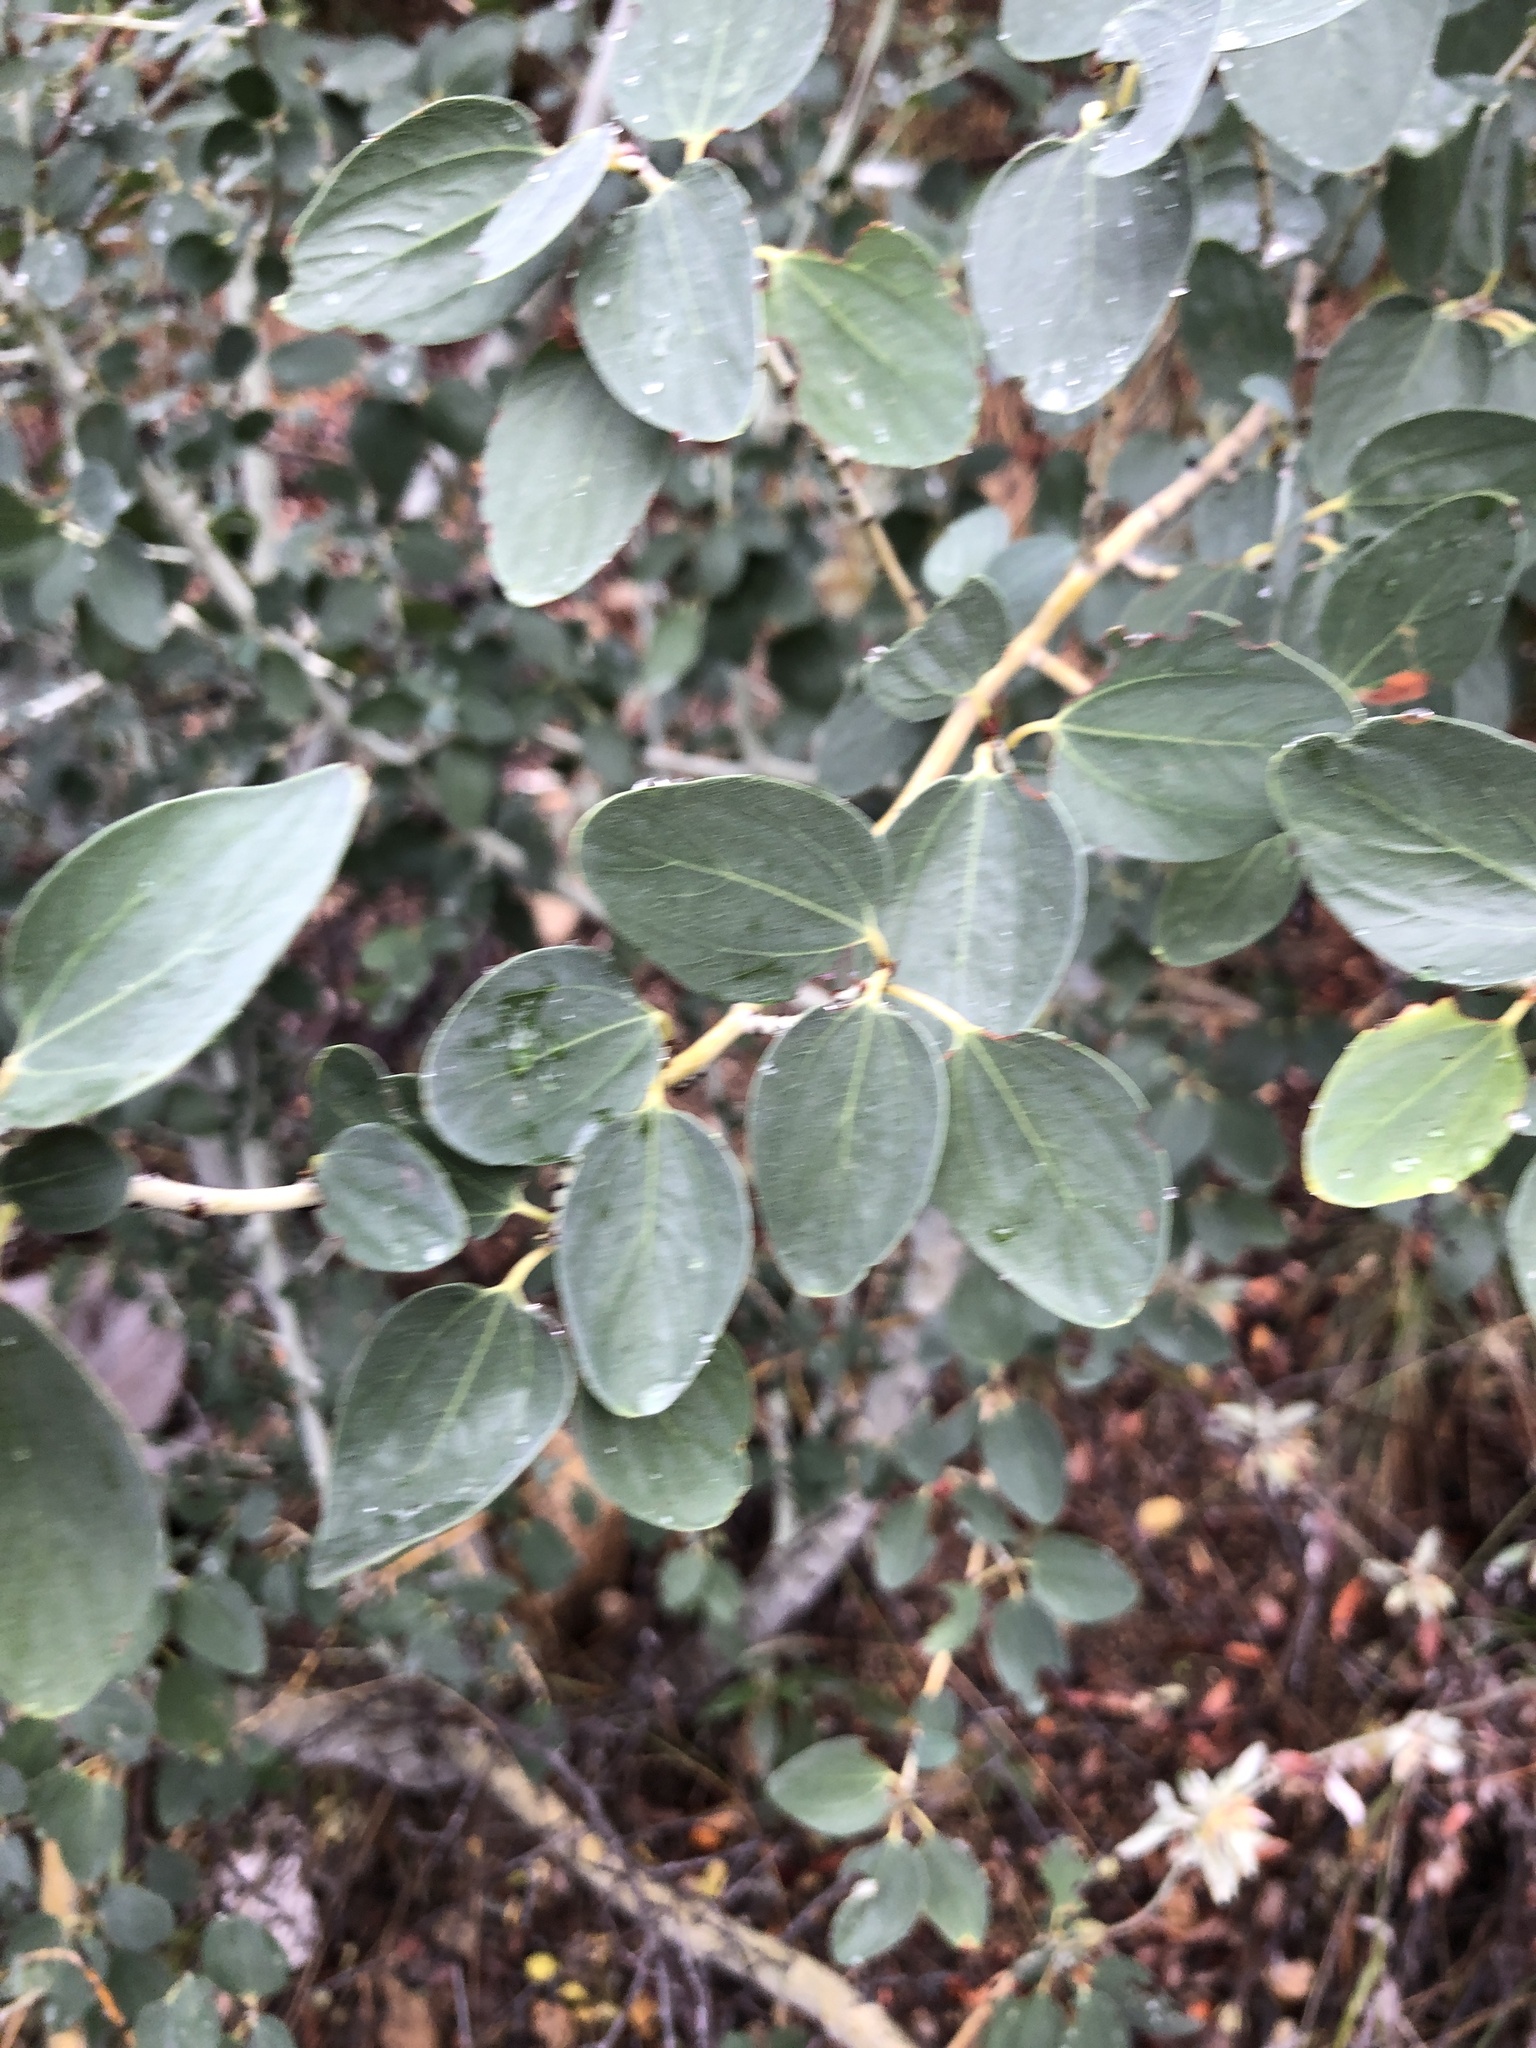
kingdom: Plantae
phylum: Tracheophyta
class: Magnoliopsida
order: Rosales
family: Rhamnaceae
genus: Ceanothus
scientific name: Ceanothus leucodermis
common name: Chaparral whitethorn
